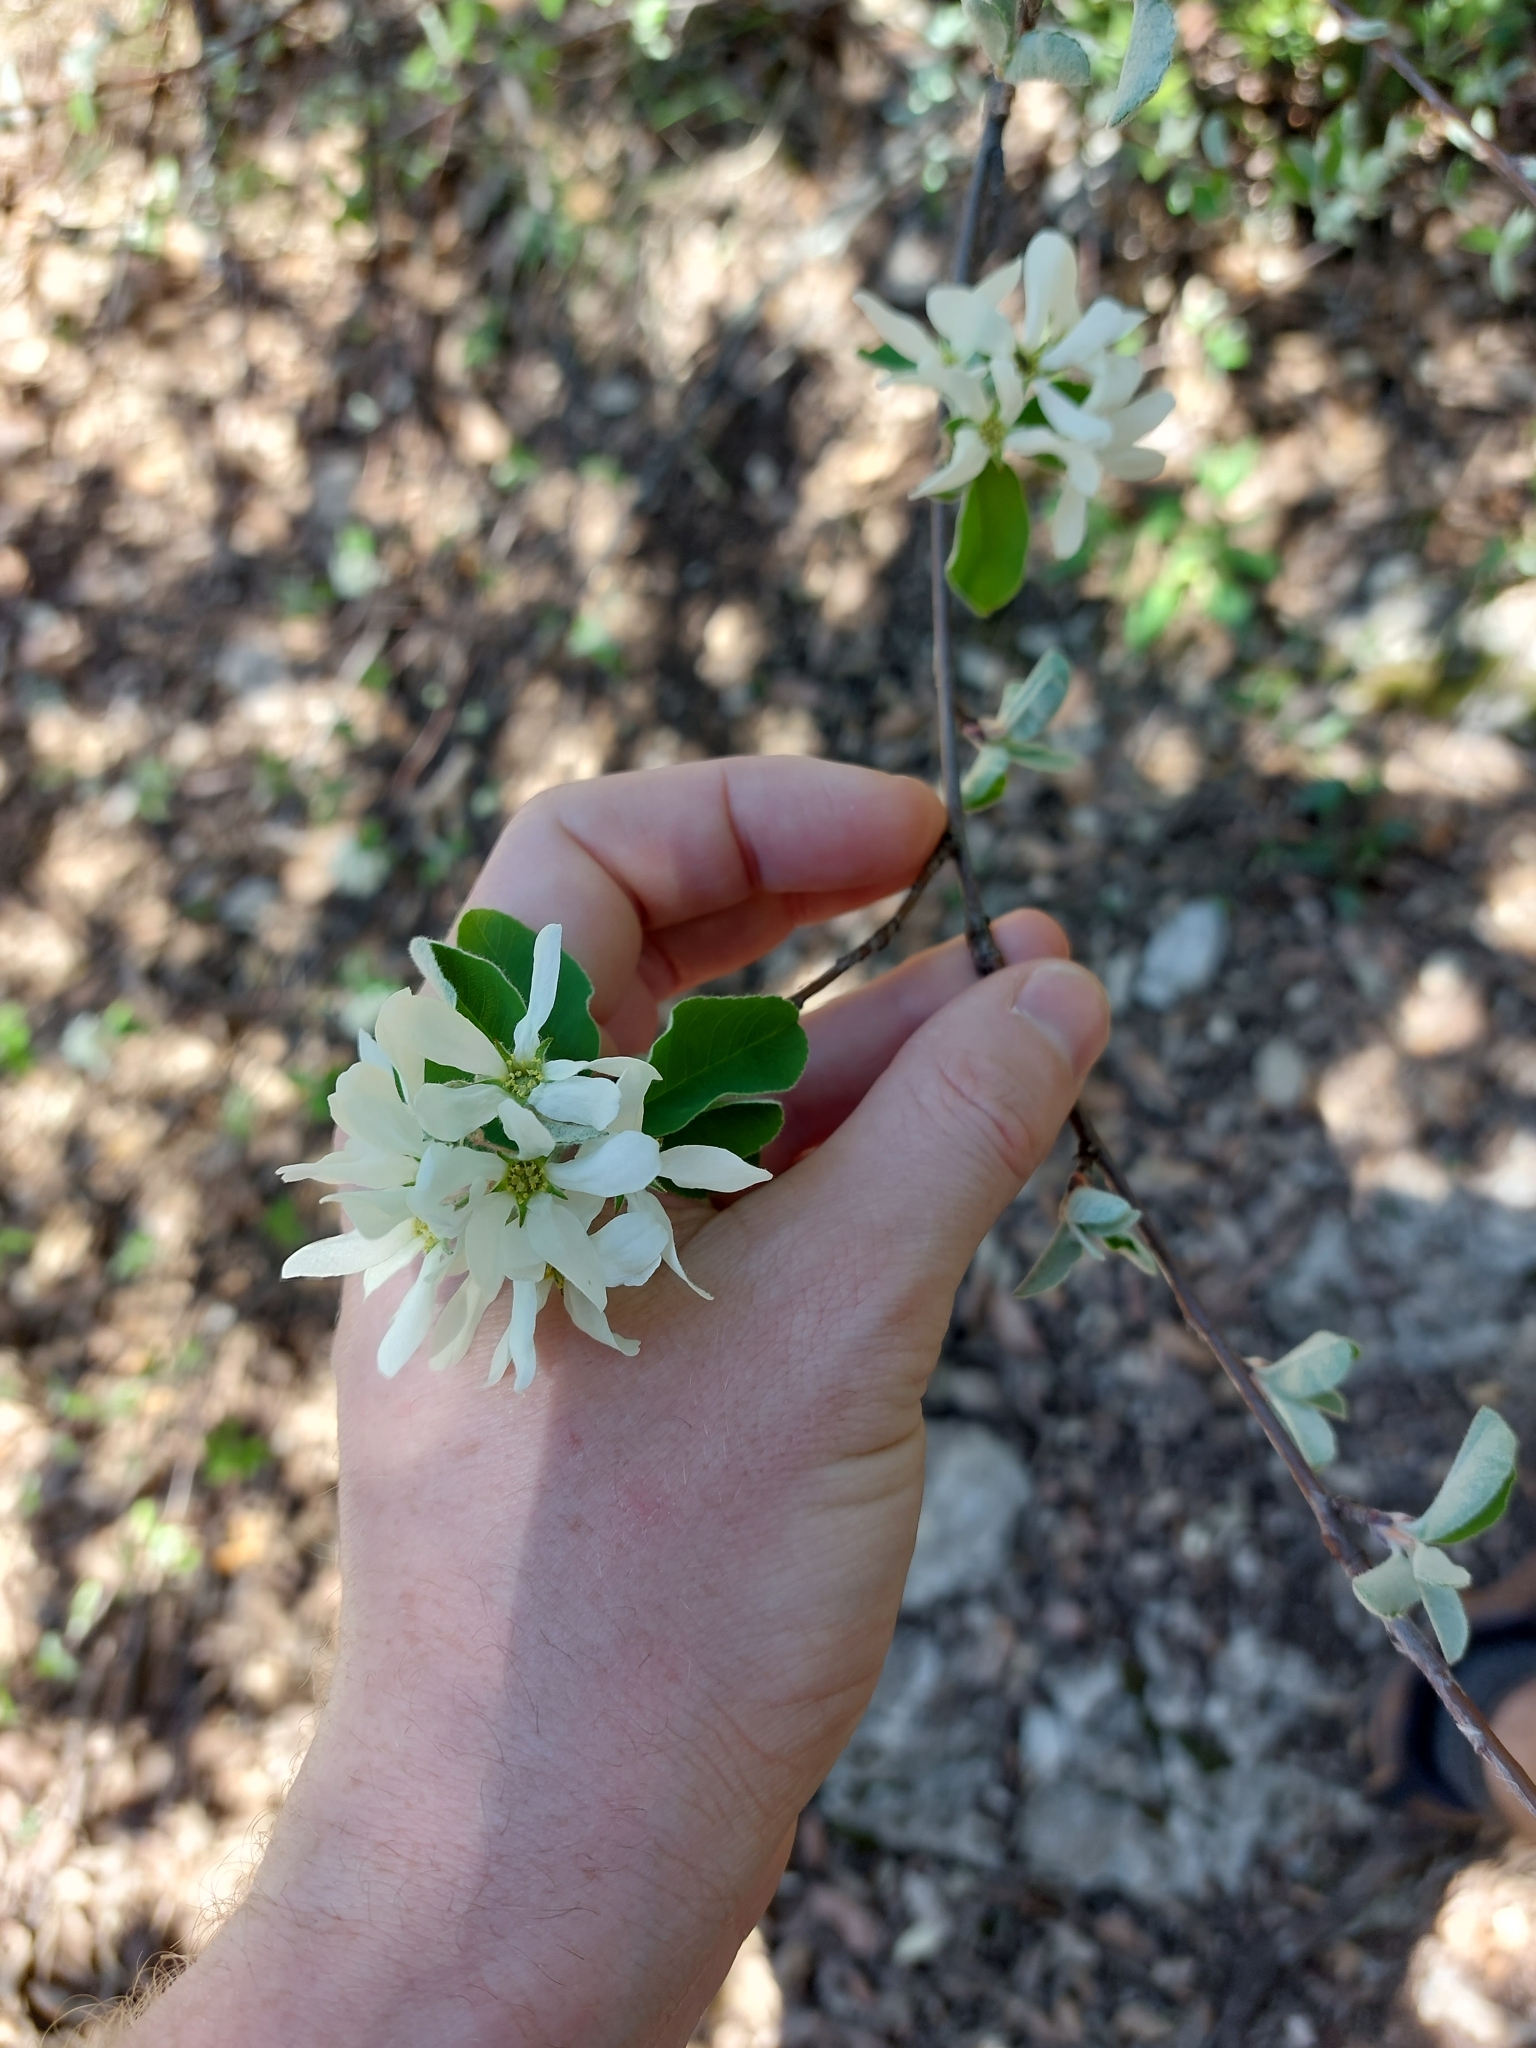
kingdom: Plantae
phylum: Tracheophyta
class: Magnoliopsida
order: Rosales
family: Rosaceae
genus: Amelanchier
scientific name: Amelanchier ovalis
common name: Serviceberry
